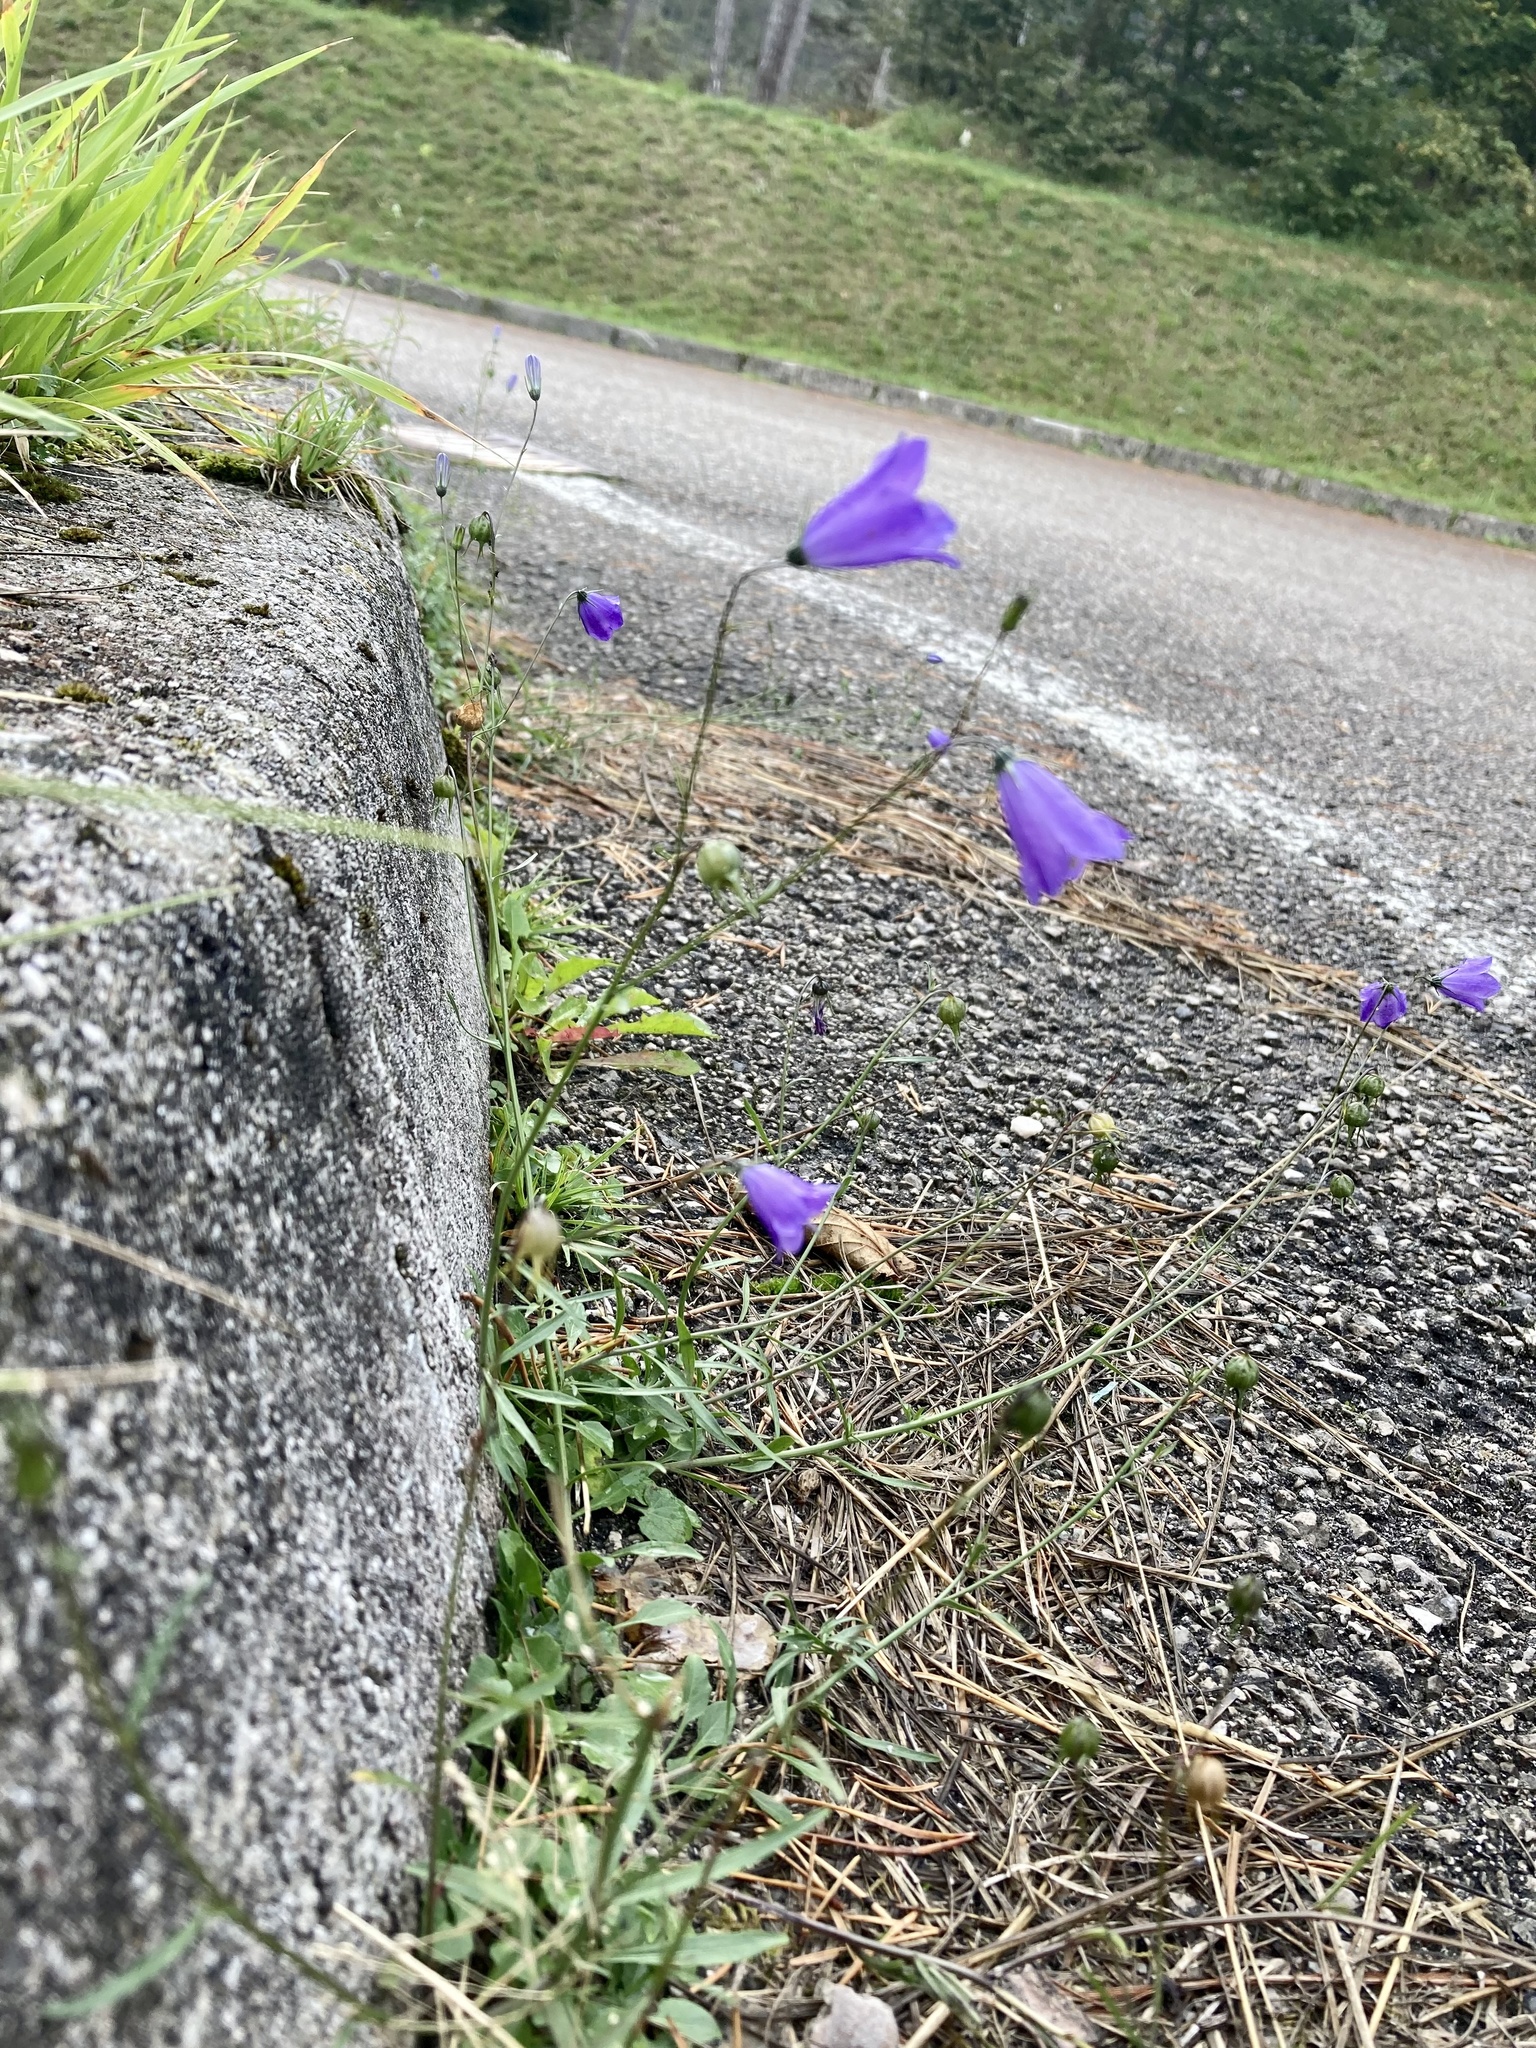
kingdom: Plantae
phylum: Tracheophyta
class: Magnoliopsida
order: Asterales
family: Campanulaceae
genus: Campanula
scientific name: Campanula rotundifolia
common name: Harebell
